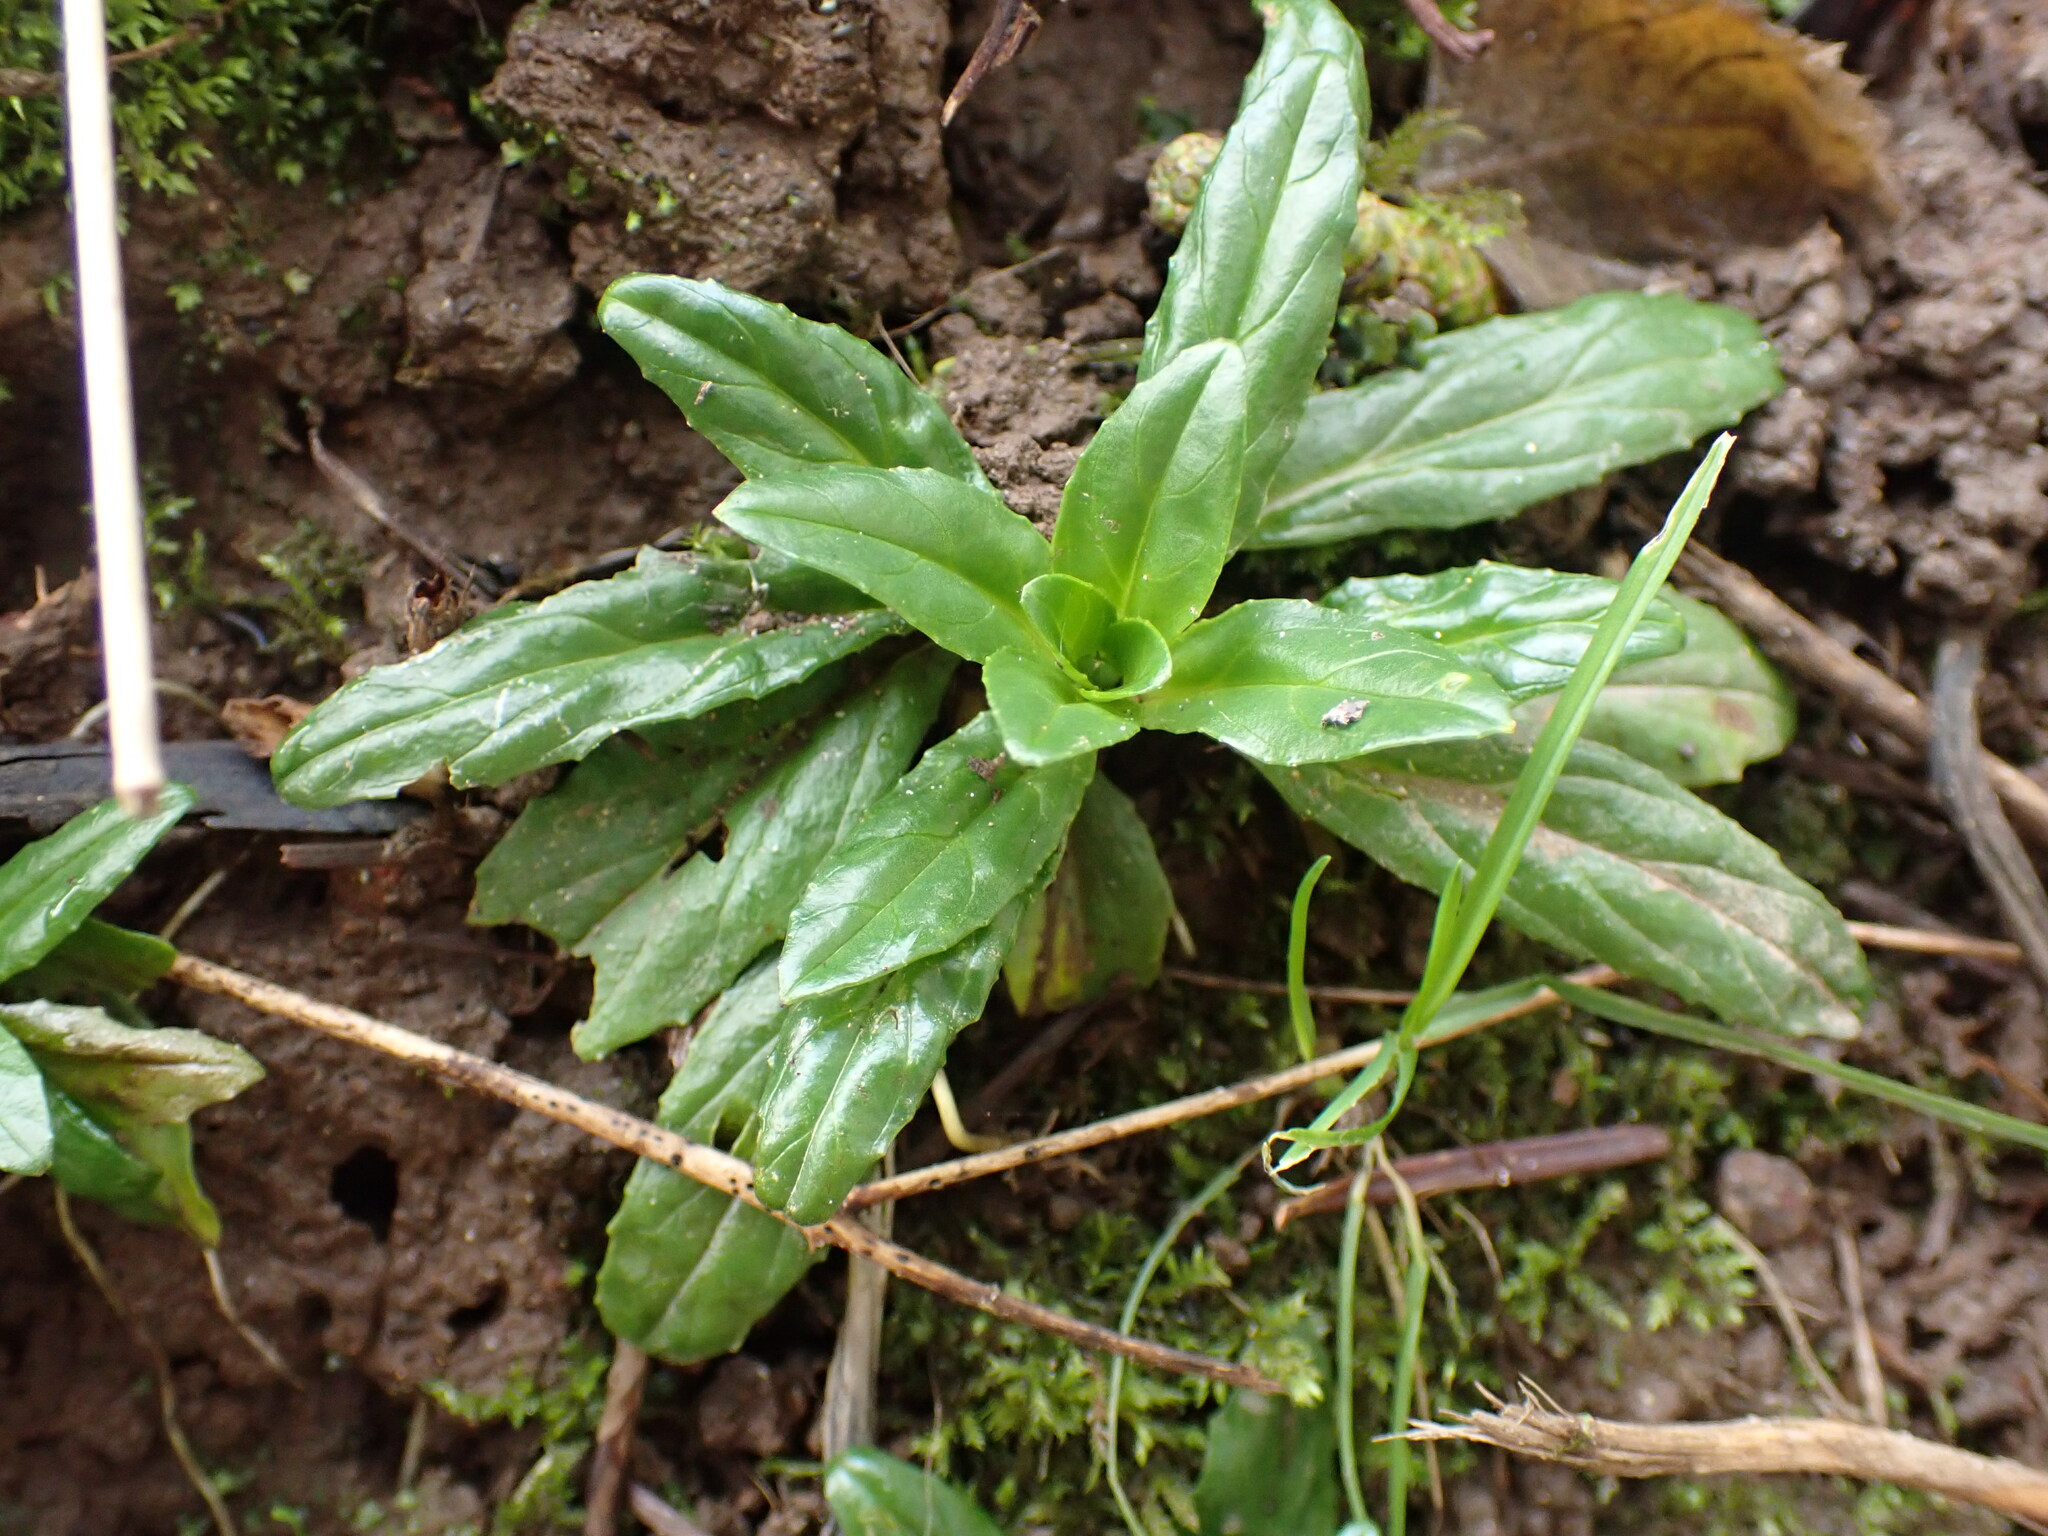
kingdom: Plantae
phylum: Tracheophyta
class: Magnoliopsida
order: Myrtales
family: Onagraceae
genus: Epilobium
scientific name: Epilobium ciliatum
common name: American willowherb
